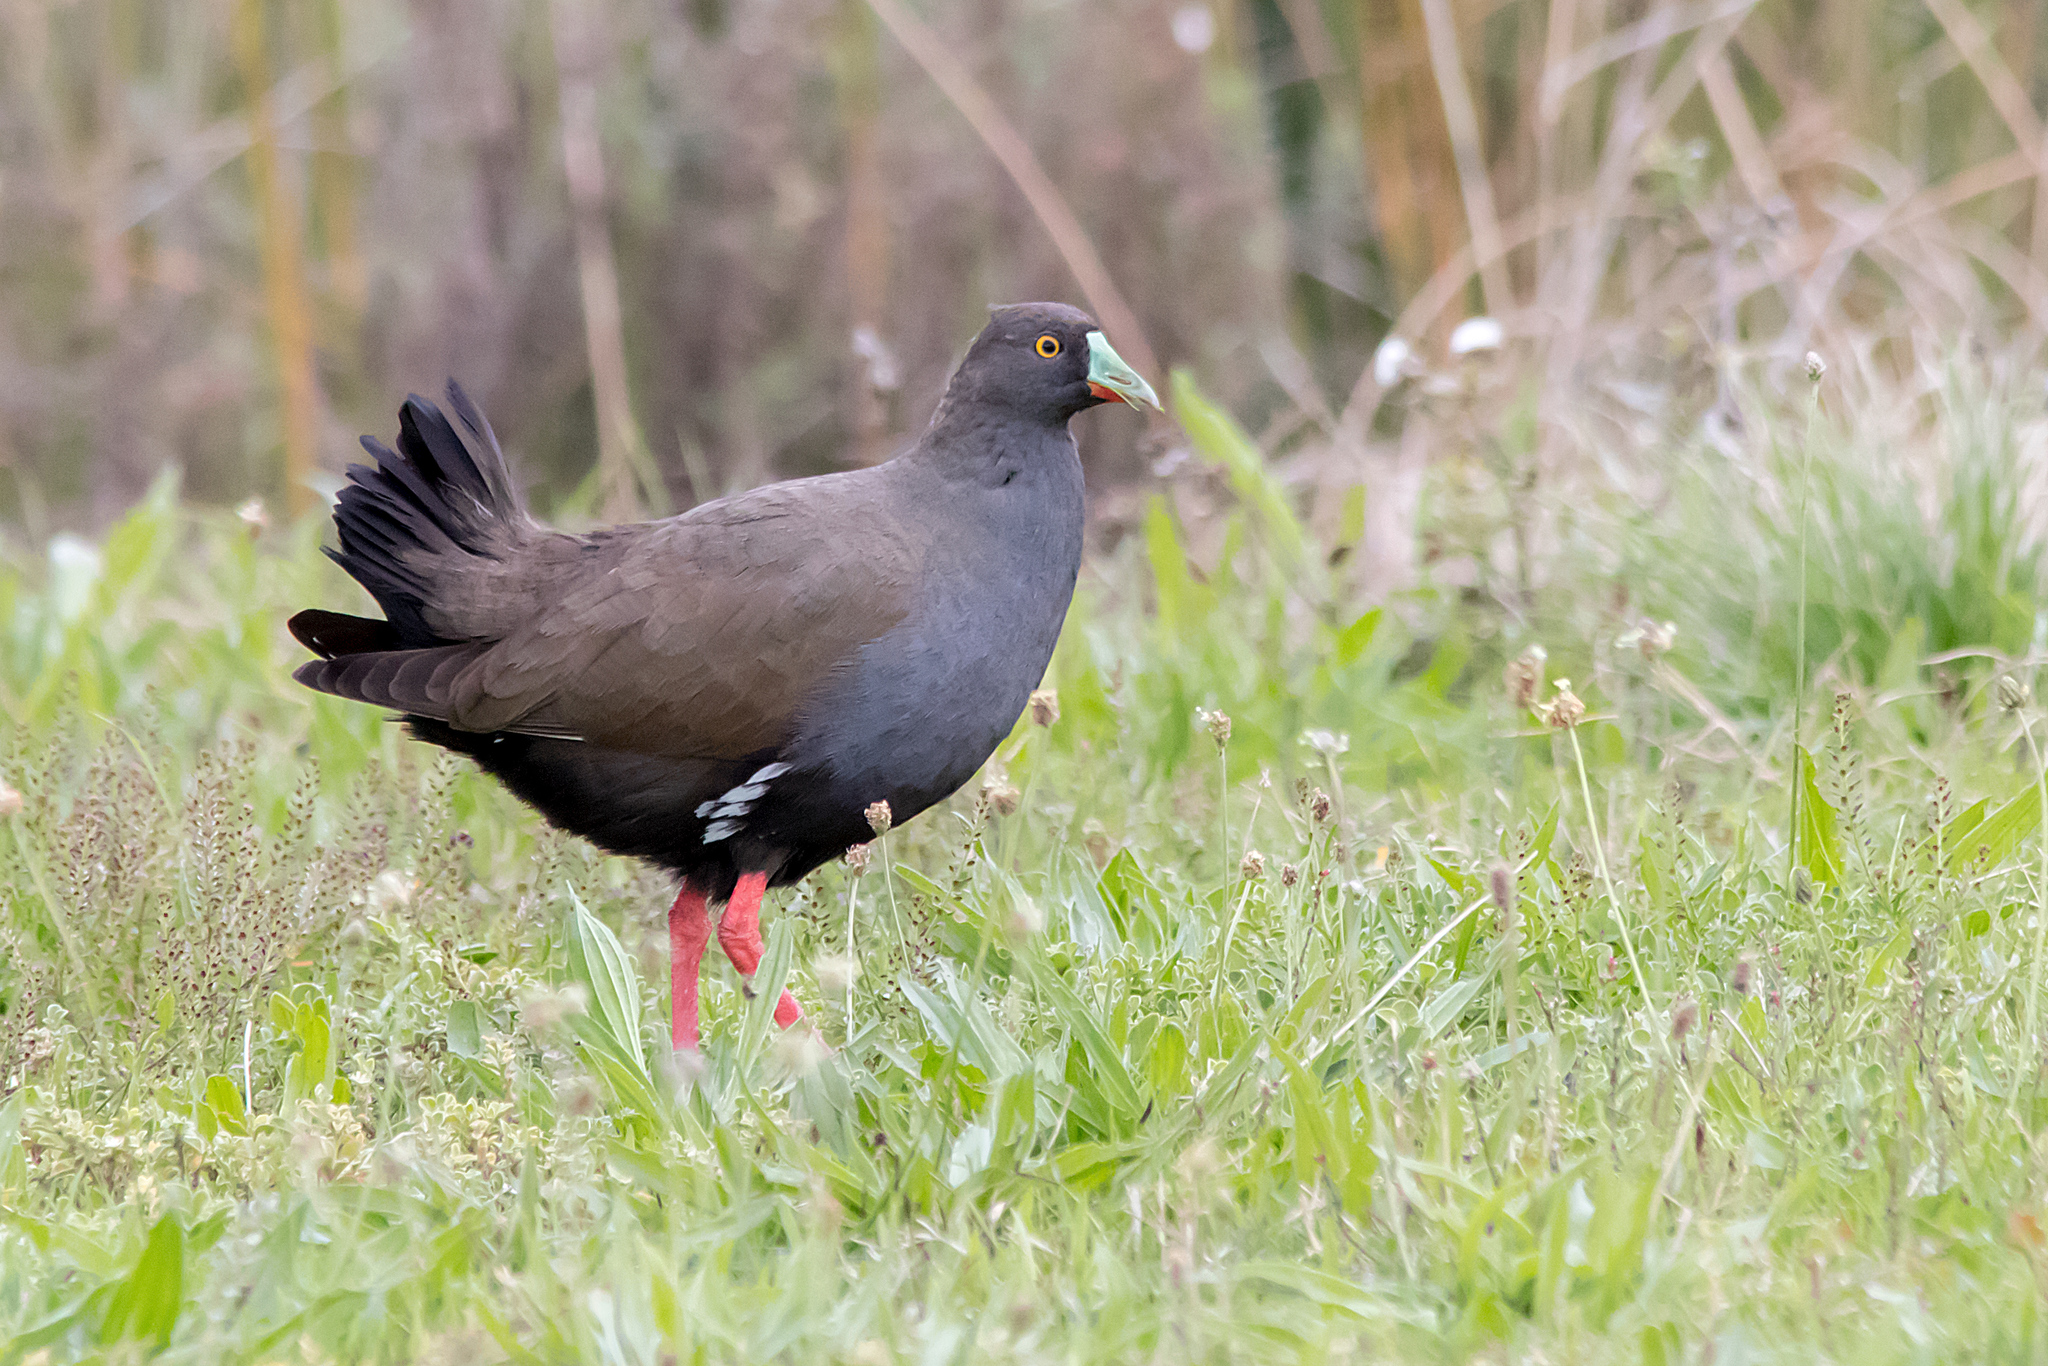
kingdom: Animalia
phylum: Chordata
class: Aves
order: Gruiformes
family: Rallidae
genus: Gallinula
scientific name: Gallinula ventralis
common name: Black-tailed nativehen
